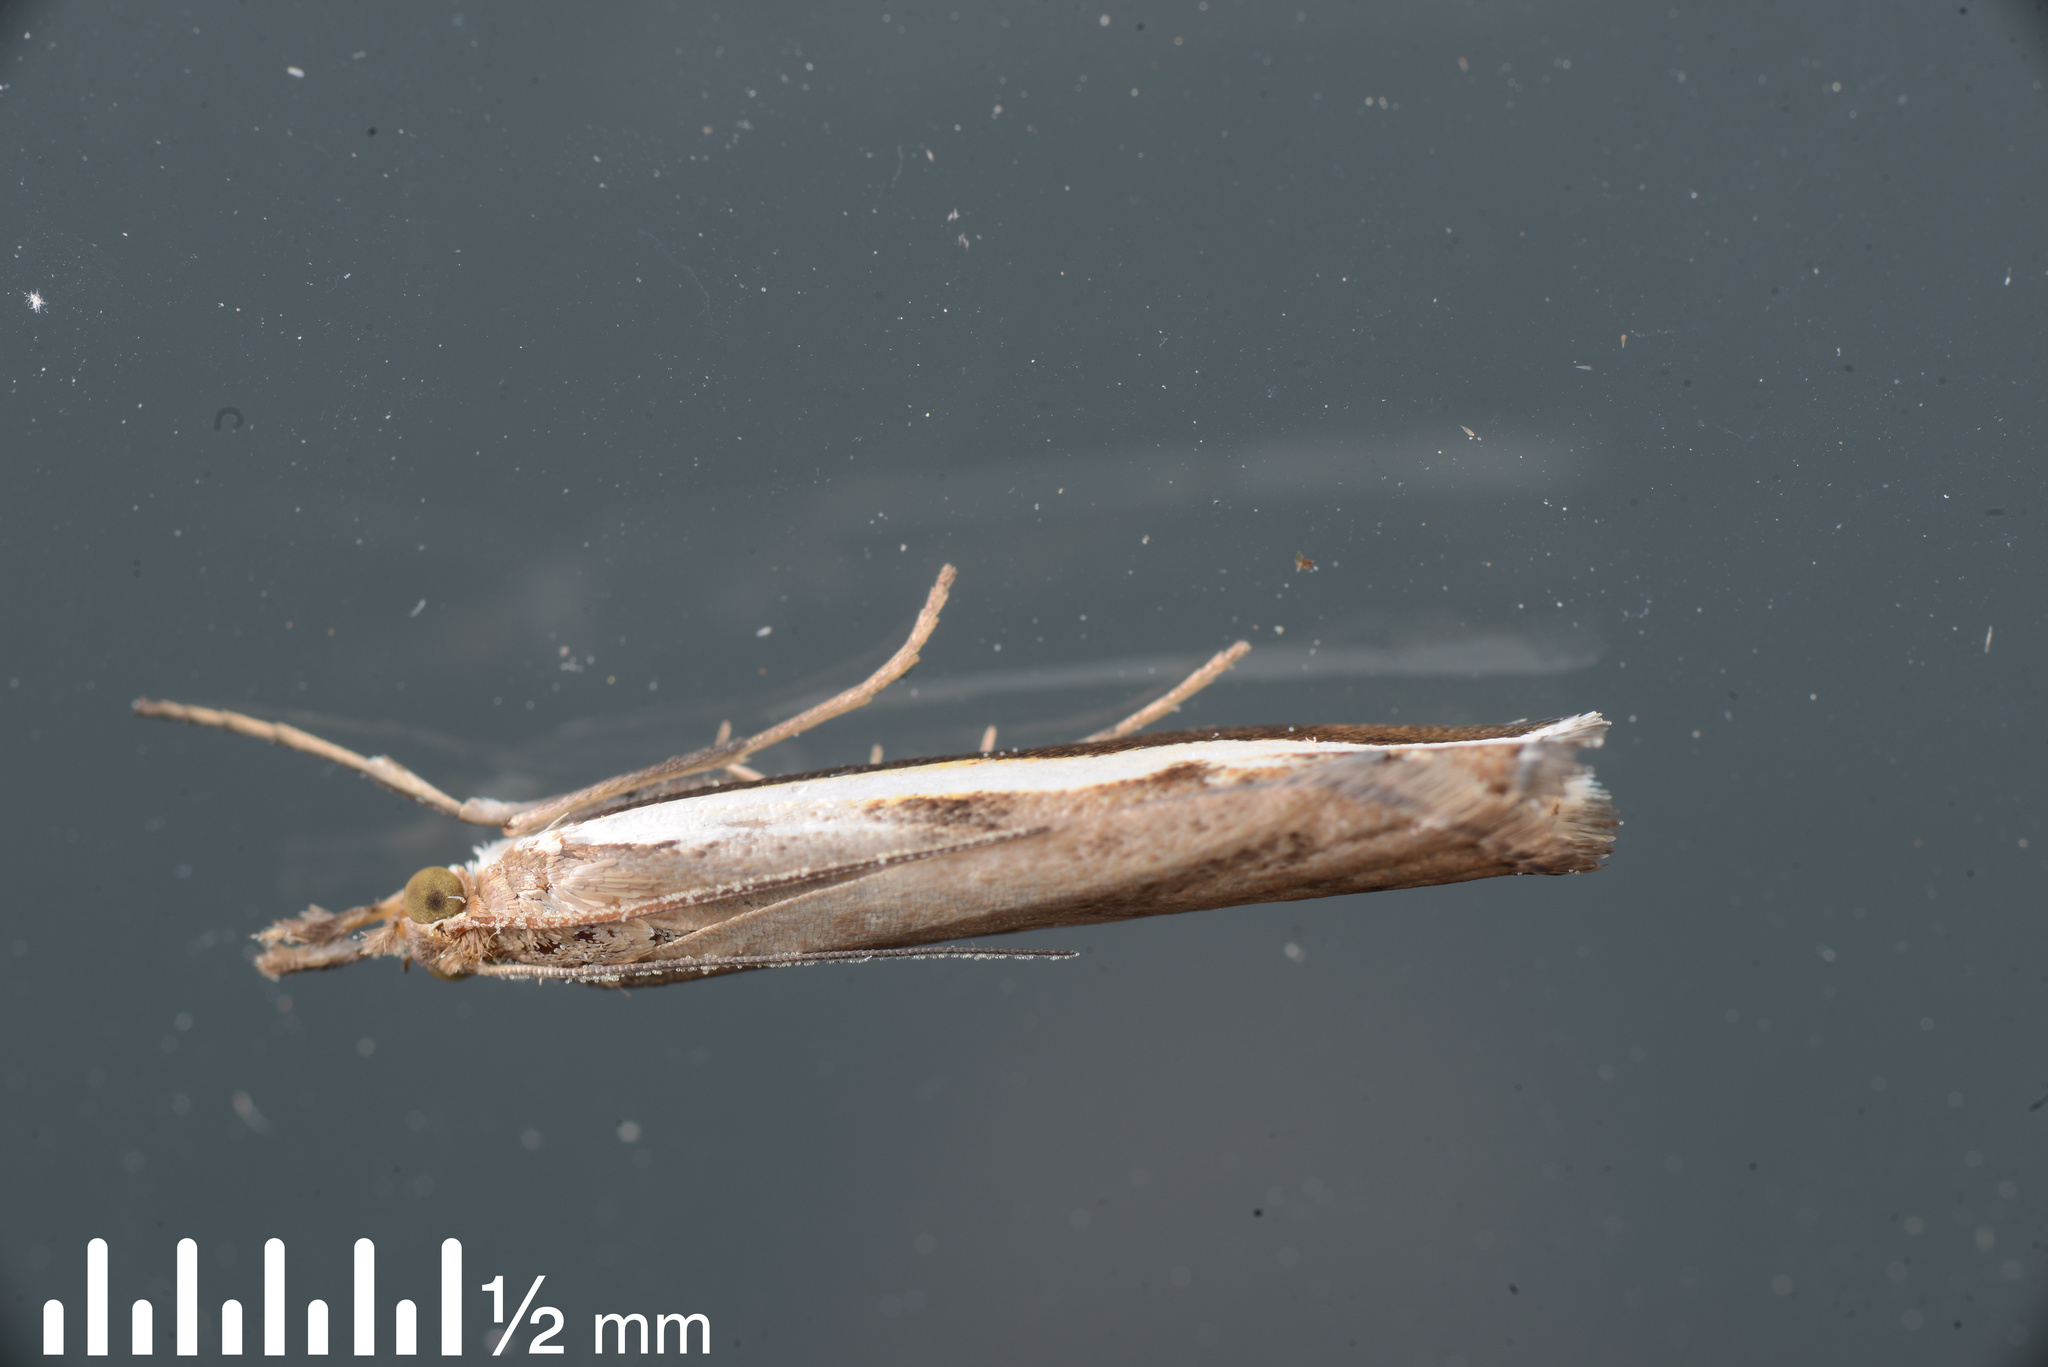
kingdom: Animalia
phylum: Arthropoda
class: Insecta
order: Lepidoptera
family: Crambidae
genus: Orocrambus
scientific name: Orocrambus flexuosellus
